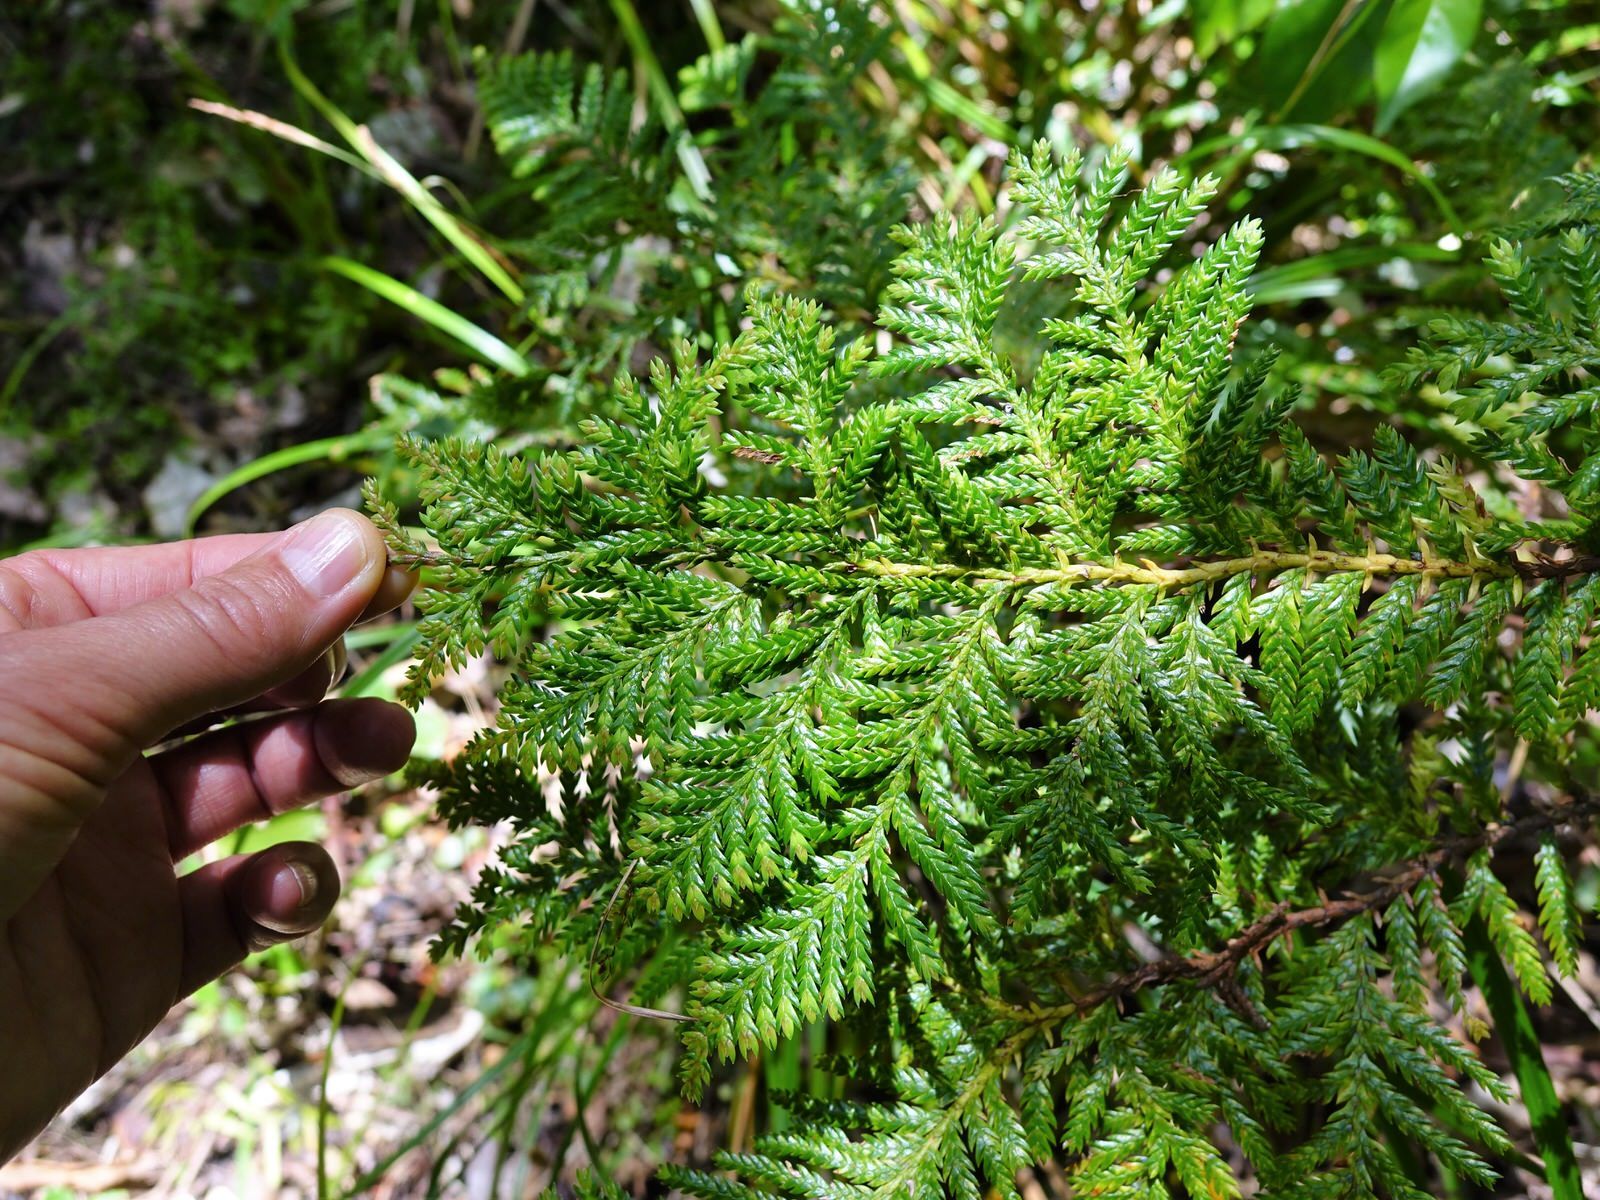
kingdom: Plantae
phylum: Tracheophyta
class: Pinopsida
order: Pinales
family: Cupressaceae
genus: Libocedrus
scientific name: Libocedrus plumosa
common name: New zealand cedar
